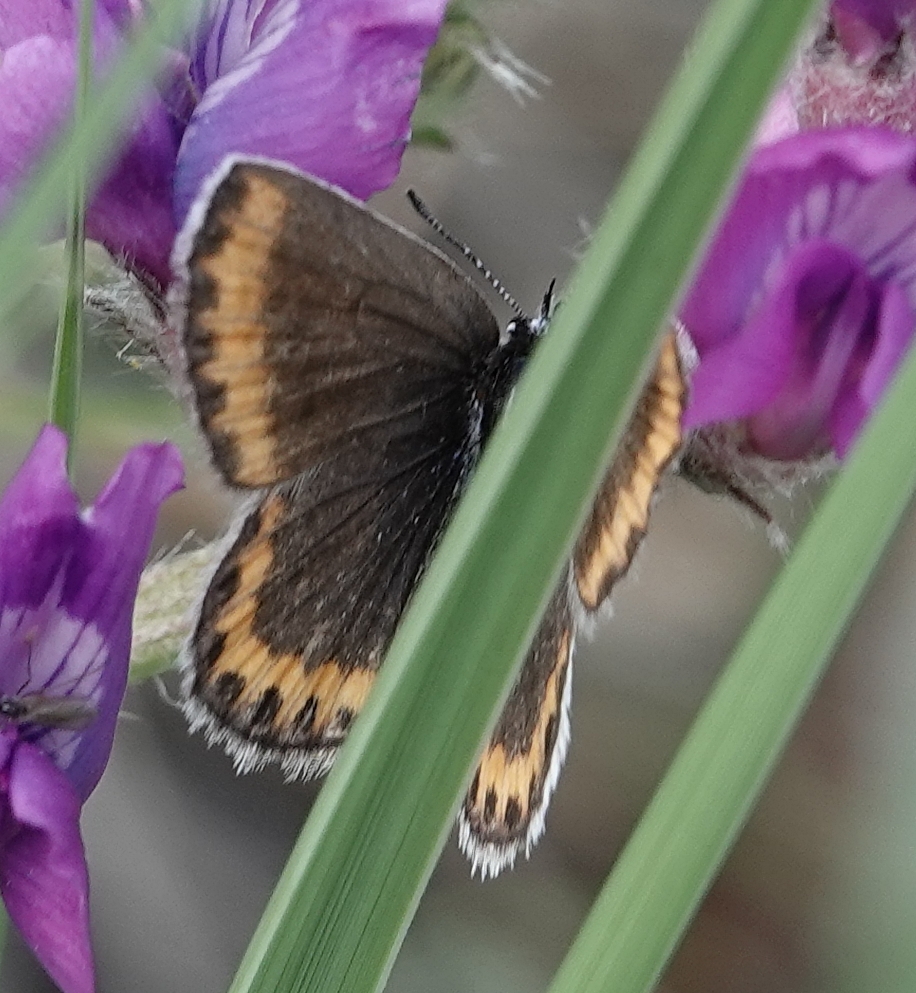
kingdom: Animalia
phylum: Arthropoda
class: Insecta
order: Lepidoptera
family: Lycaenidae
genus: Lycaeides
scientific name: Lycaeides melissa
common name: Melissa blue
